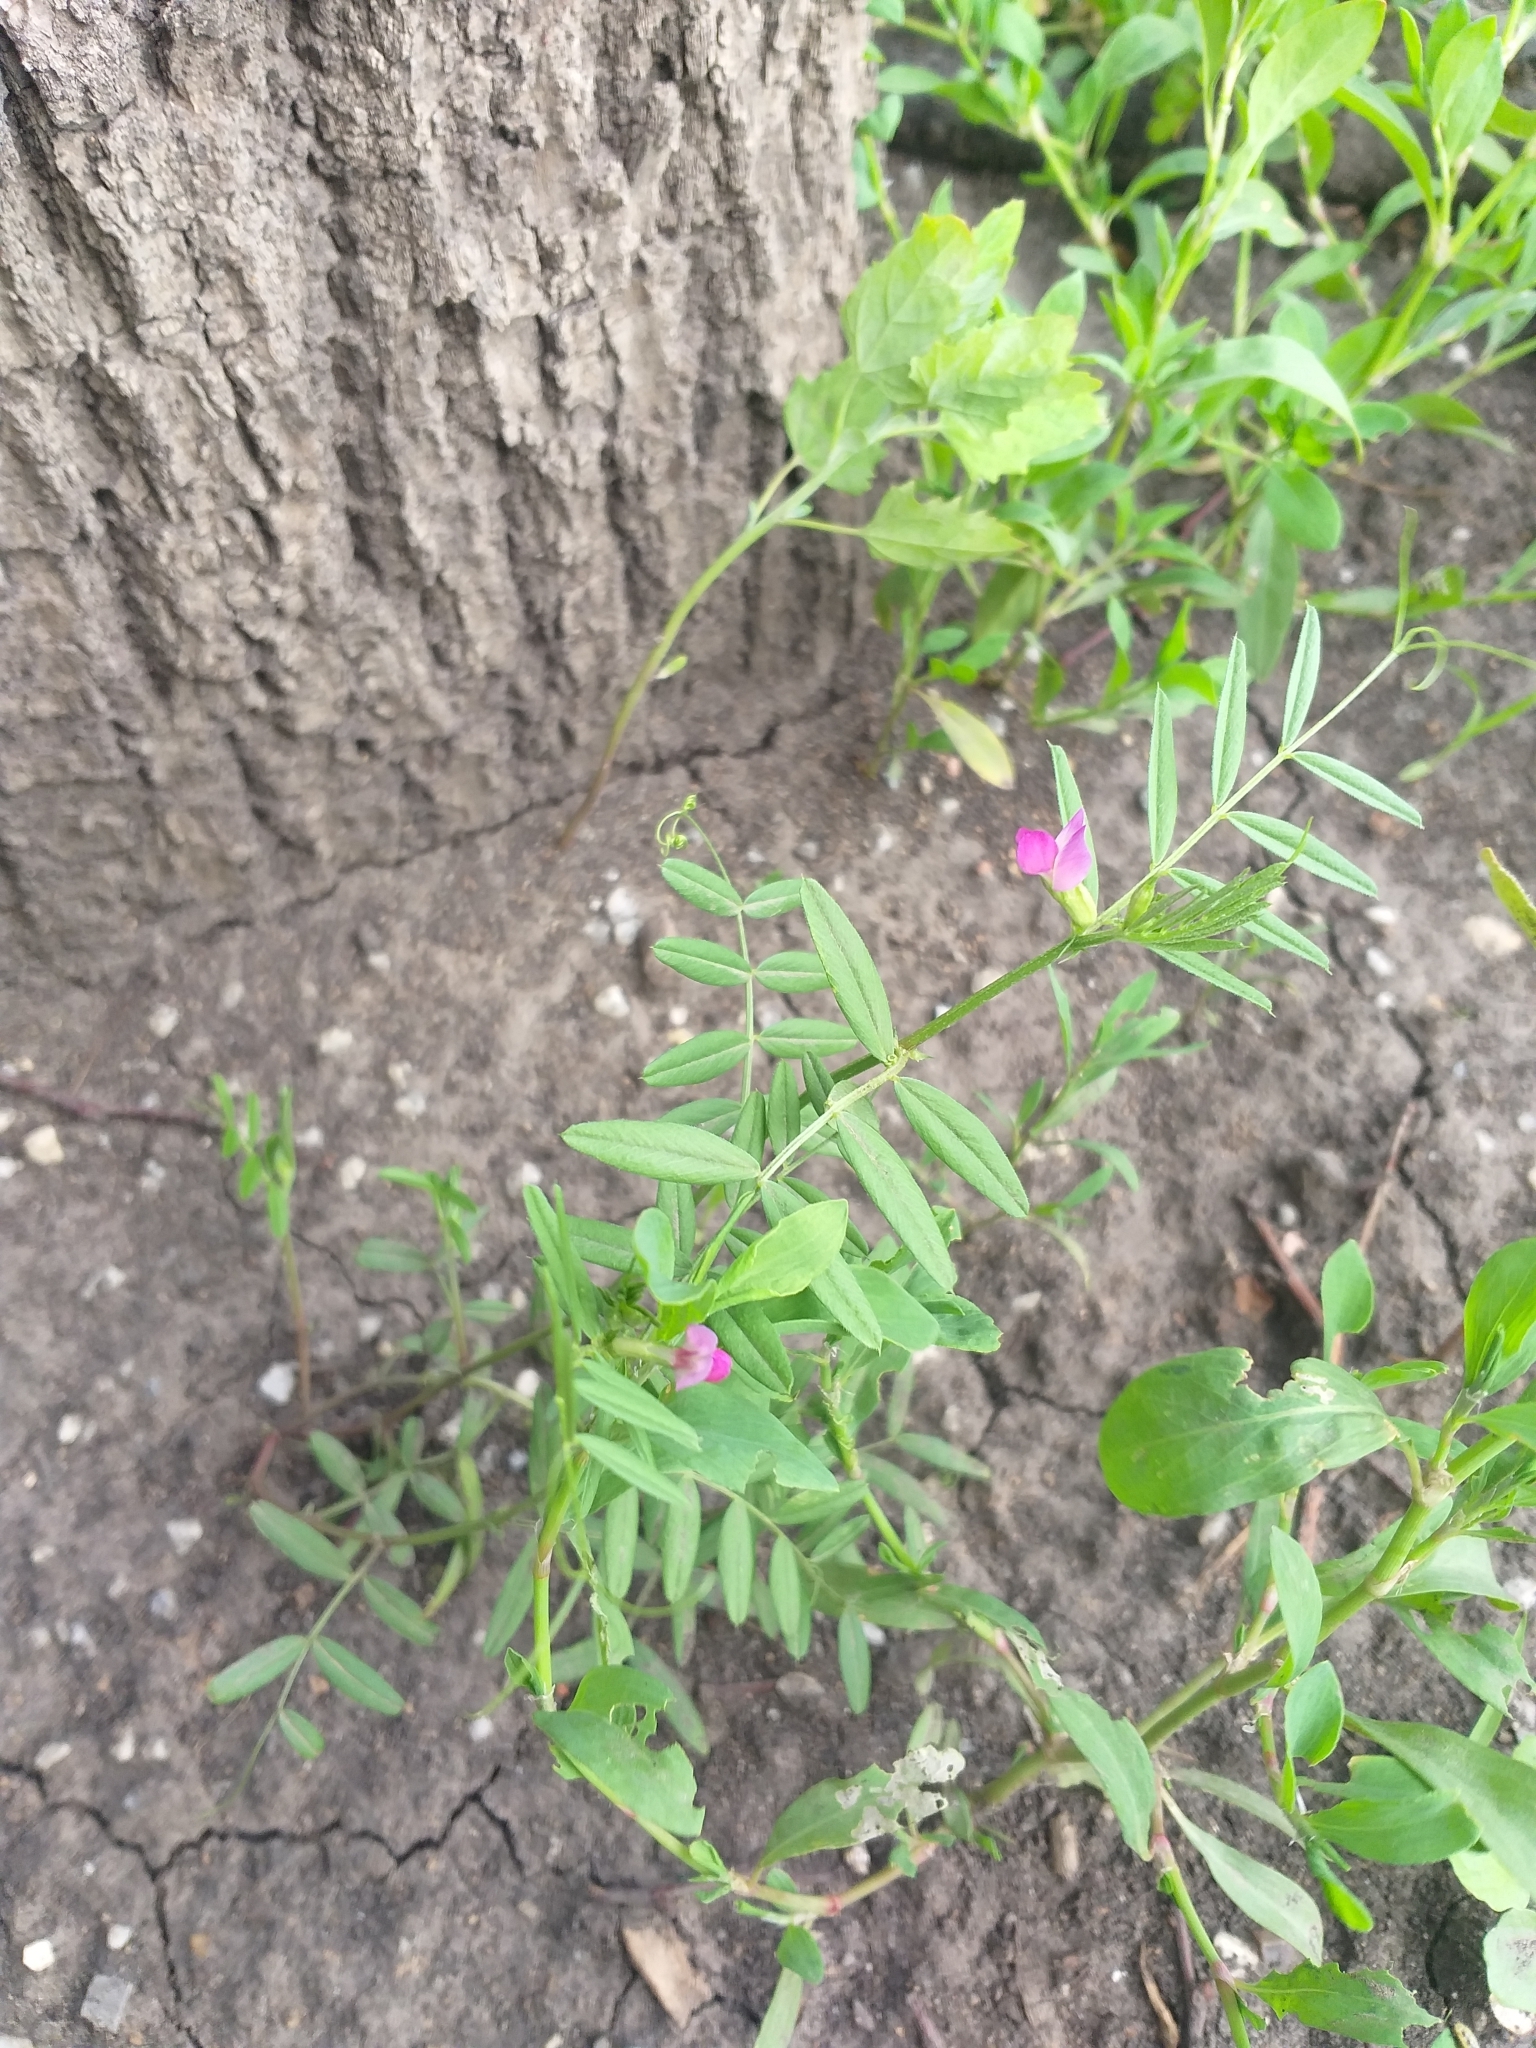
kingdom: Plantae
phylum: Tracheophyta
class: Magnoliopsida
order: Fabales
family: Fabaceae
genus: Vicia
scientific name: Vicia sativa
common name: Garden vetch
